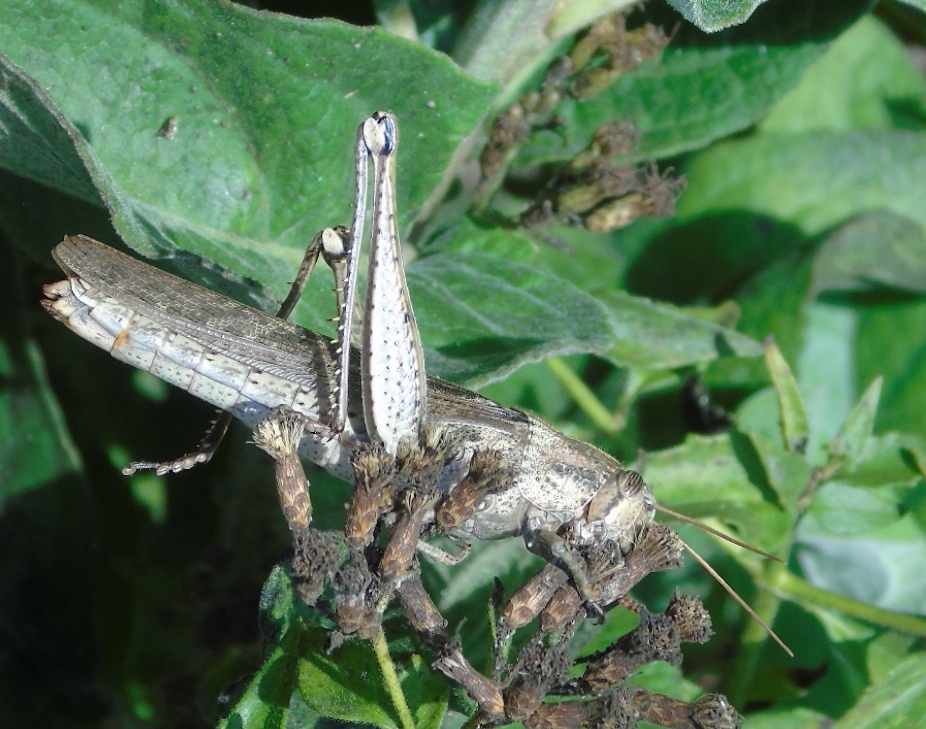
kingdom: Animalia
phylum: Arthropoda
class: Insecta
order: Orthoptera
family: Acrididae
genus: Schistocerca
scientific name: Schistocerca nitens
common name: Vagrant grasshopper
